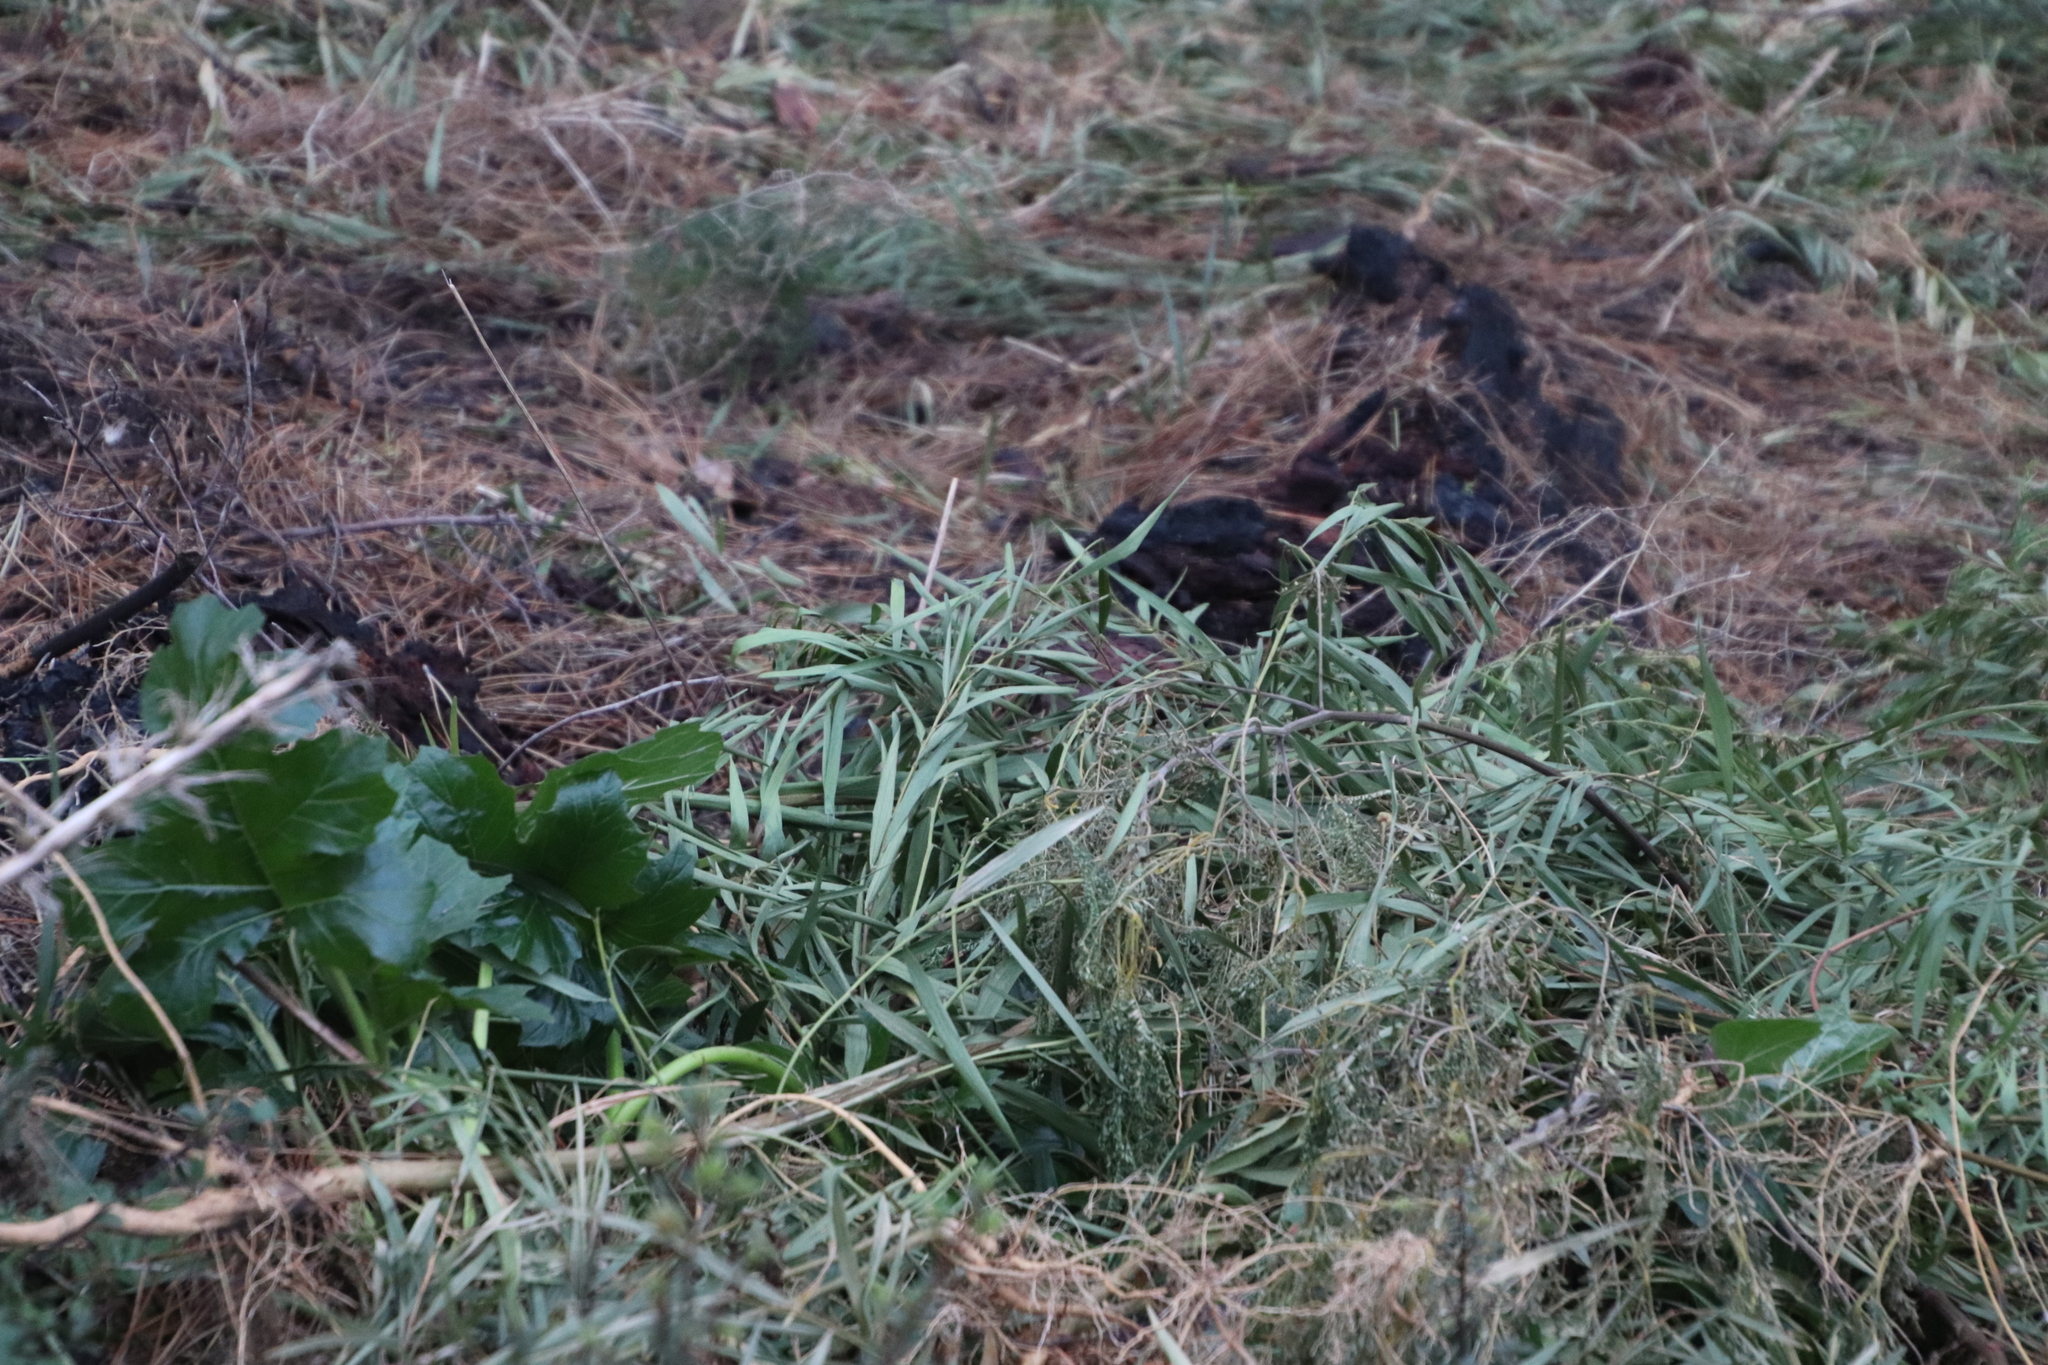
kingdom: Plantae
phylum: Tracheophyta
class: Magnoliopsida
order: Fabales
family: Fabaceae
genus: Acacia
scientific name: Acacia longifolia
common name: Sydney golden wattle
